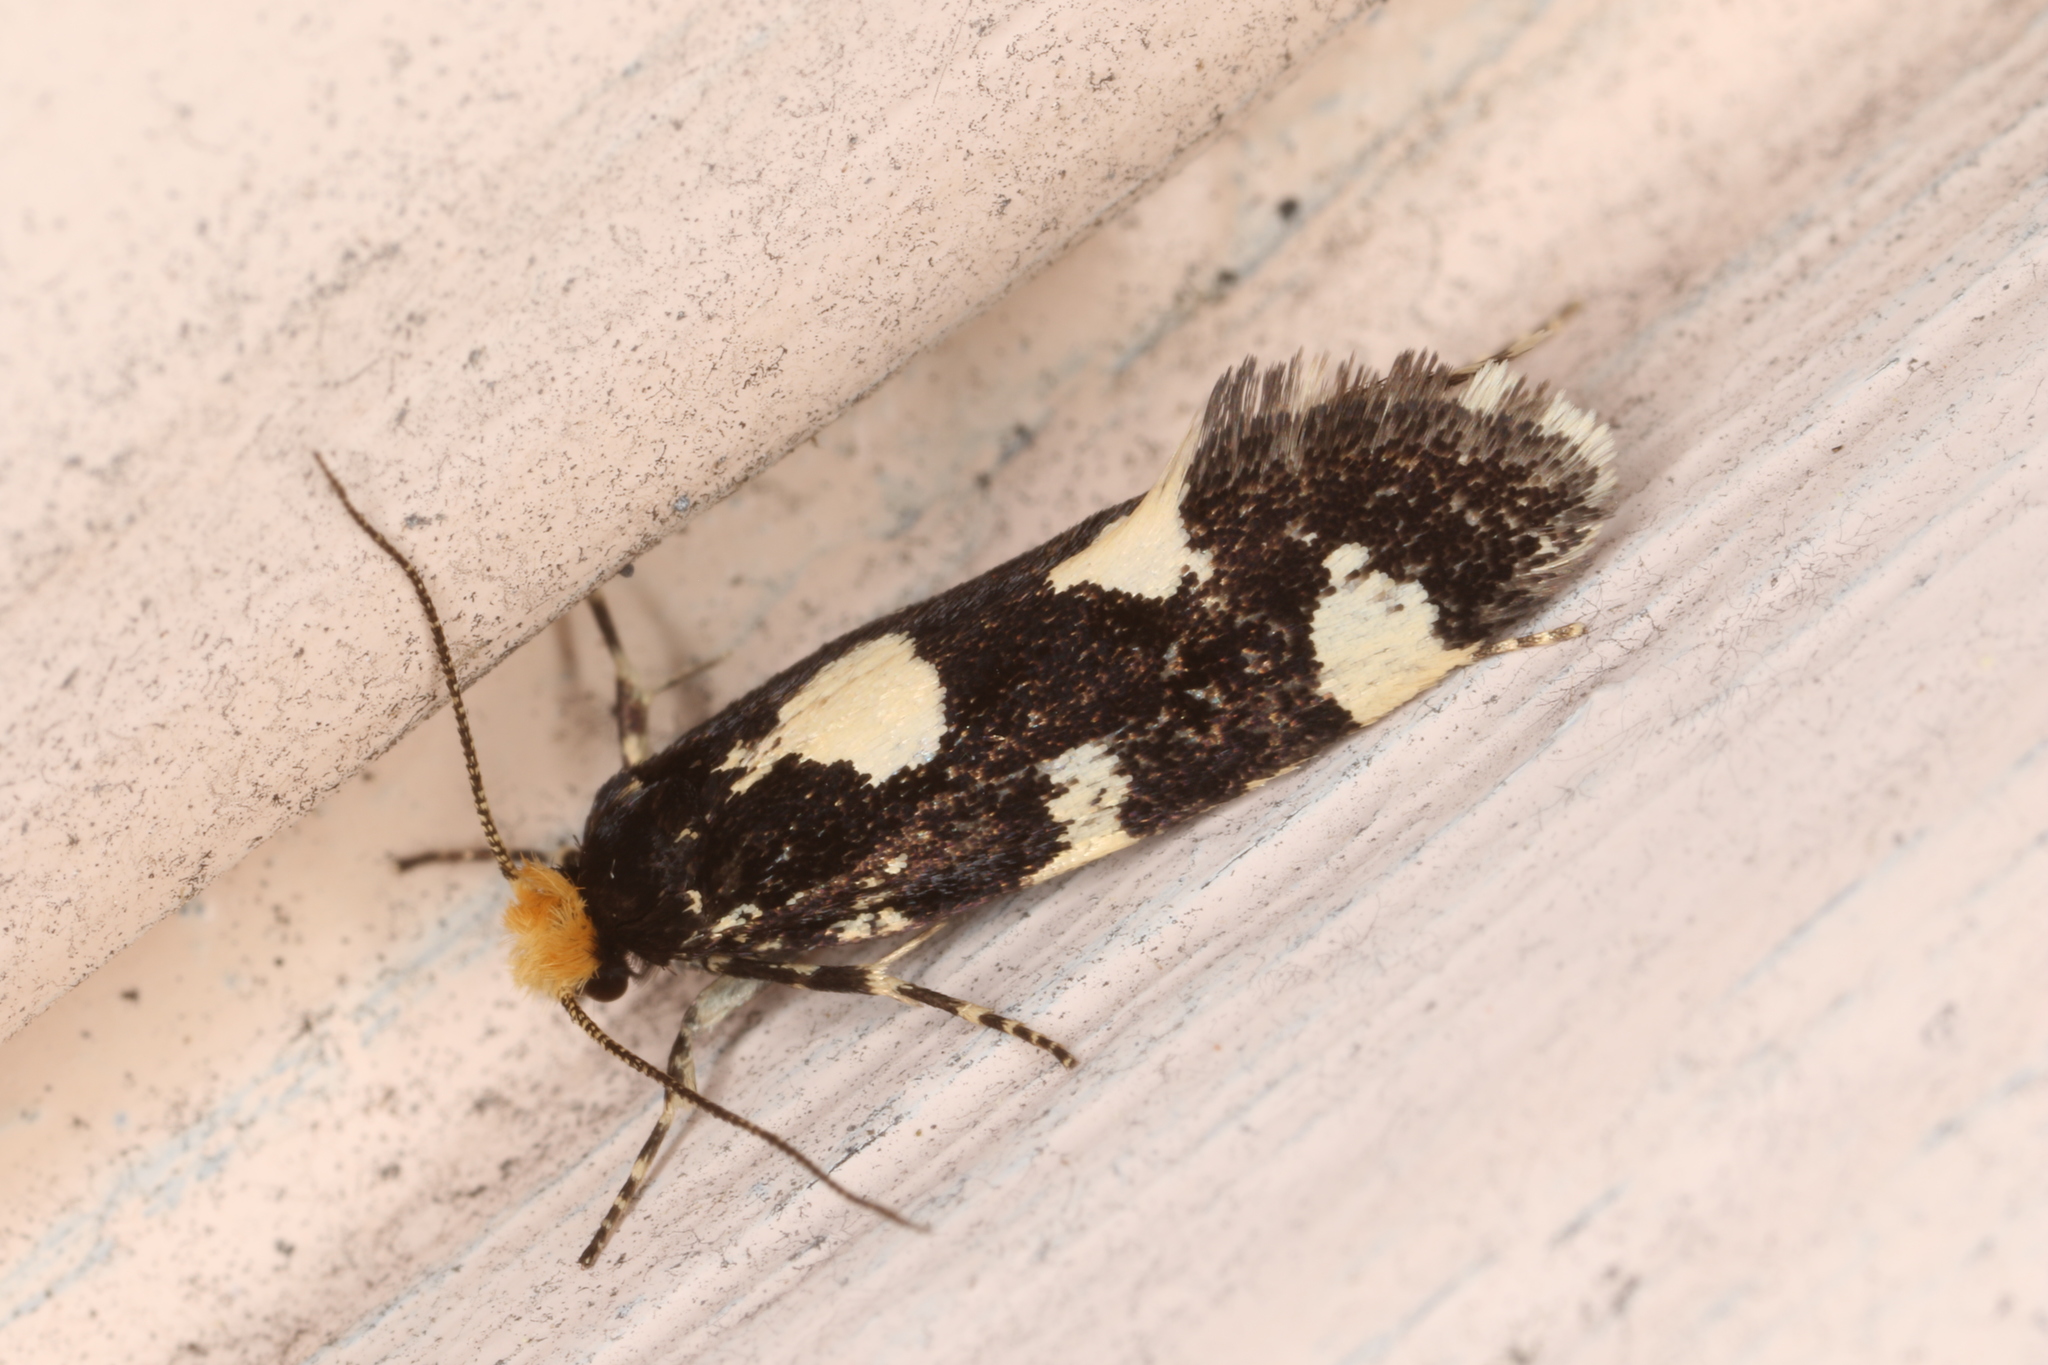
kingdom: Animalia
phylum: Arthropoda
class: Insecta
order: Lepidoptera
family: Tineidae
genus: Triaxomera
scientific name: Triaxomera fulvimitrella
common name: Four-spotted clothes
